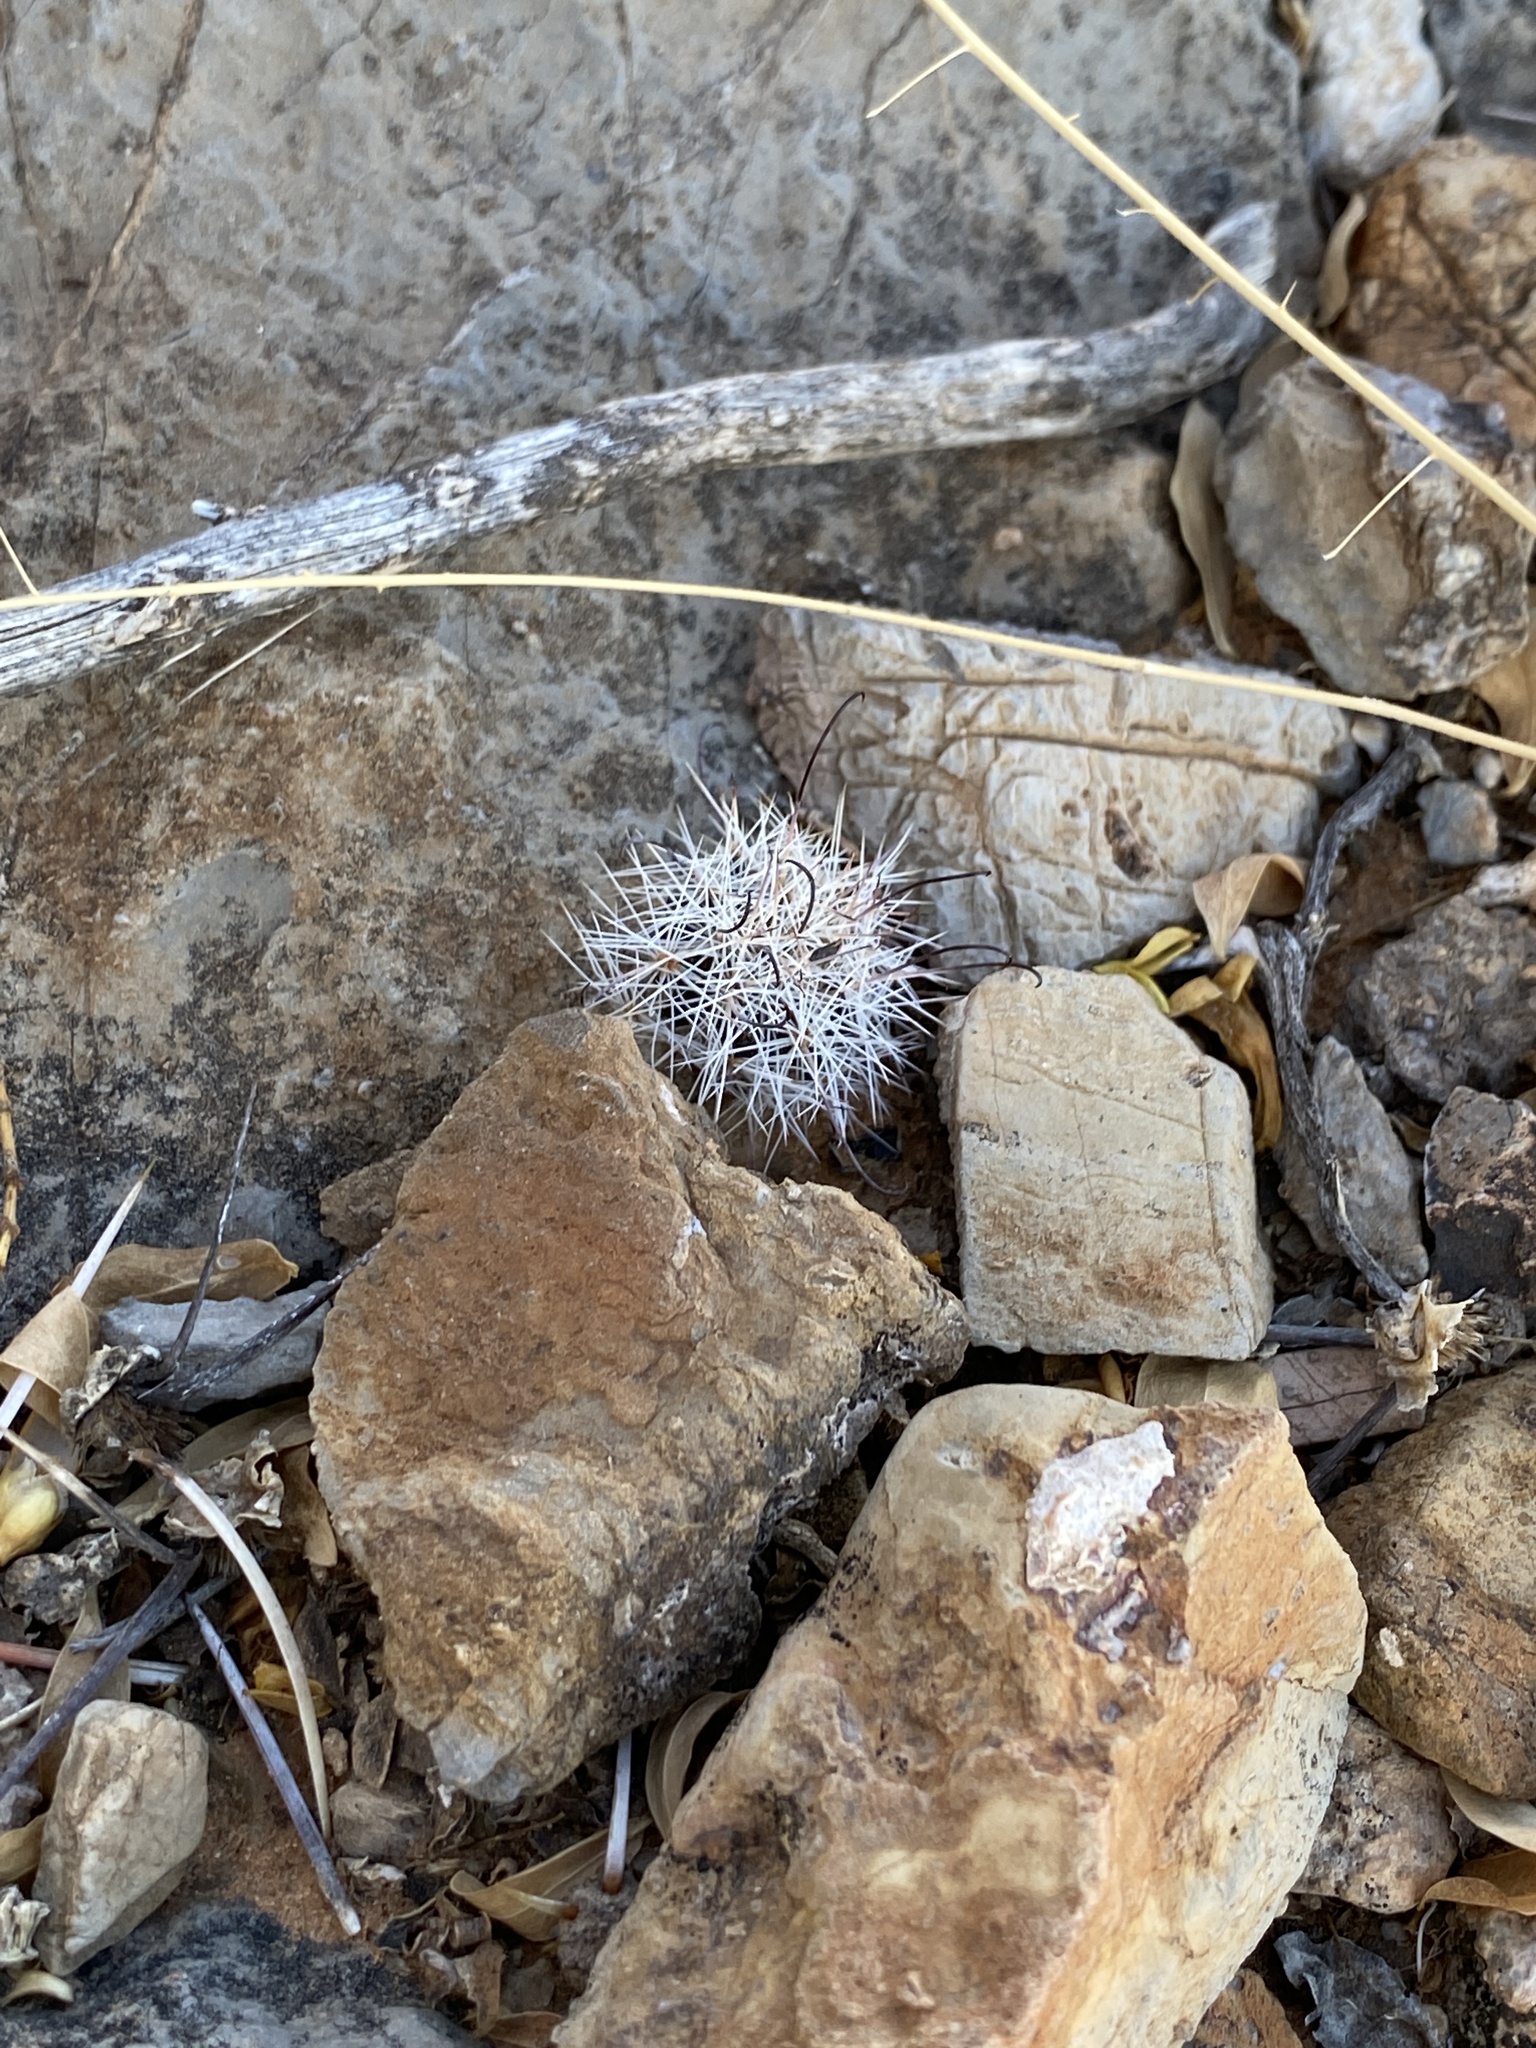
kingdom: Plantae
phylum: Tracheophyta
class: Magnoliopsida
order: Caryophyllales
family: Cactaceae
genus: Cochemiea
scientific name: Cochemiea grahamii
